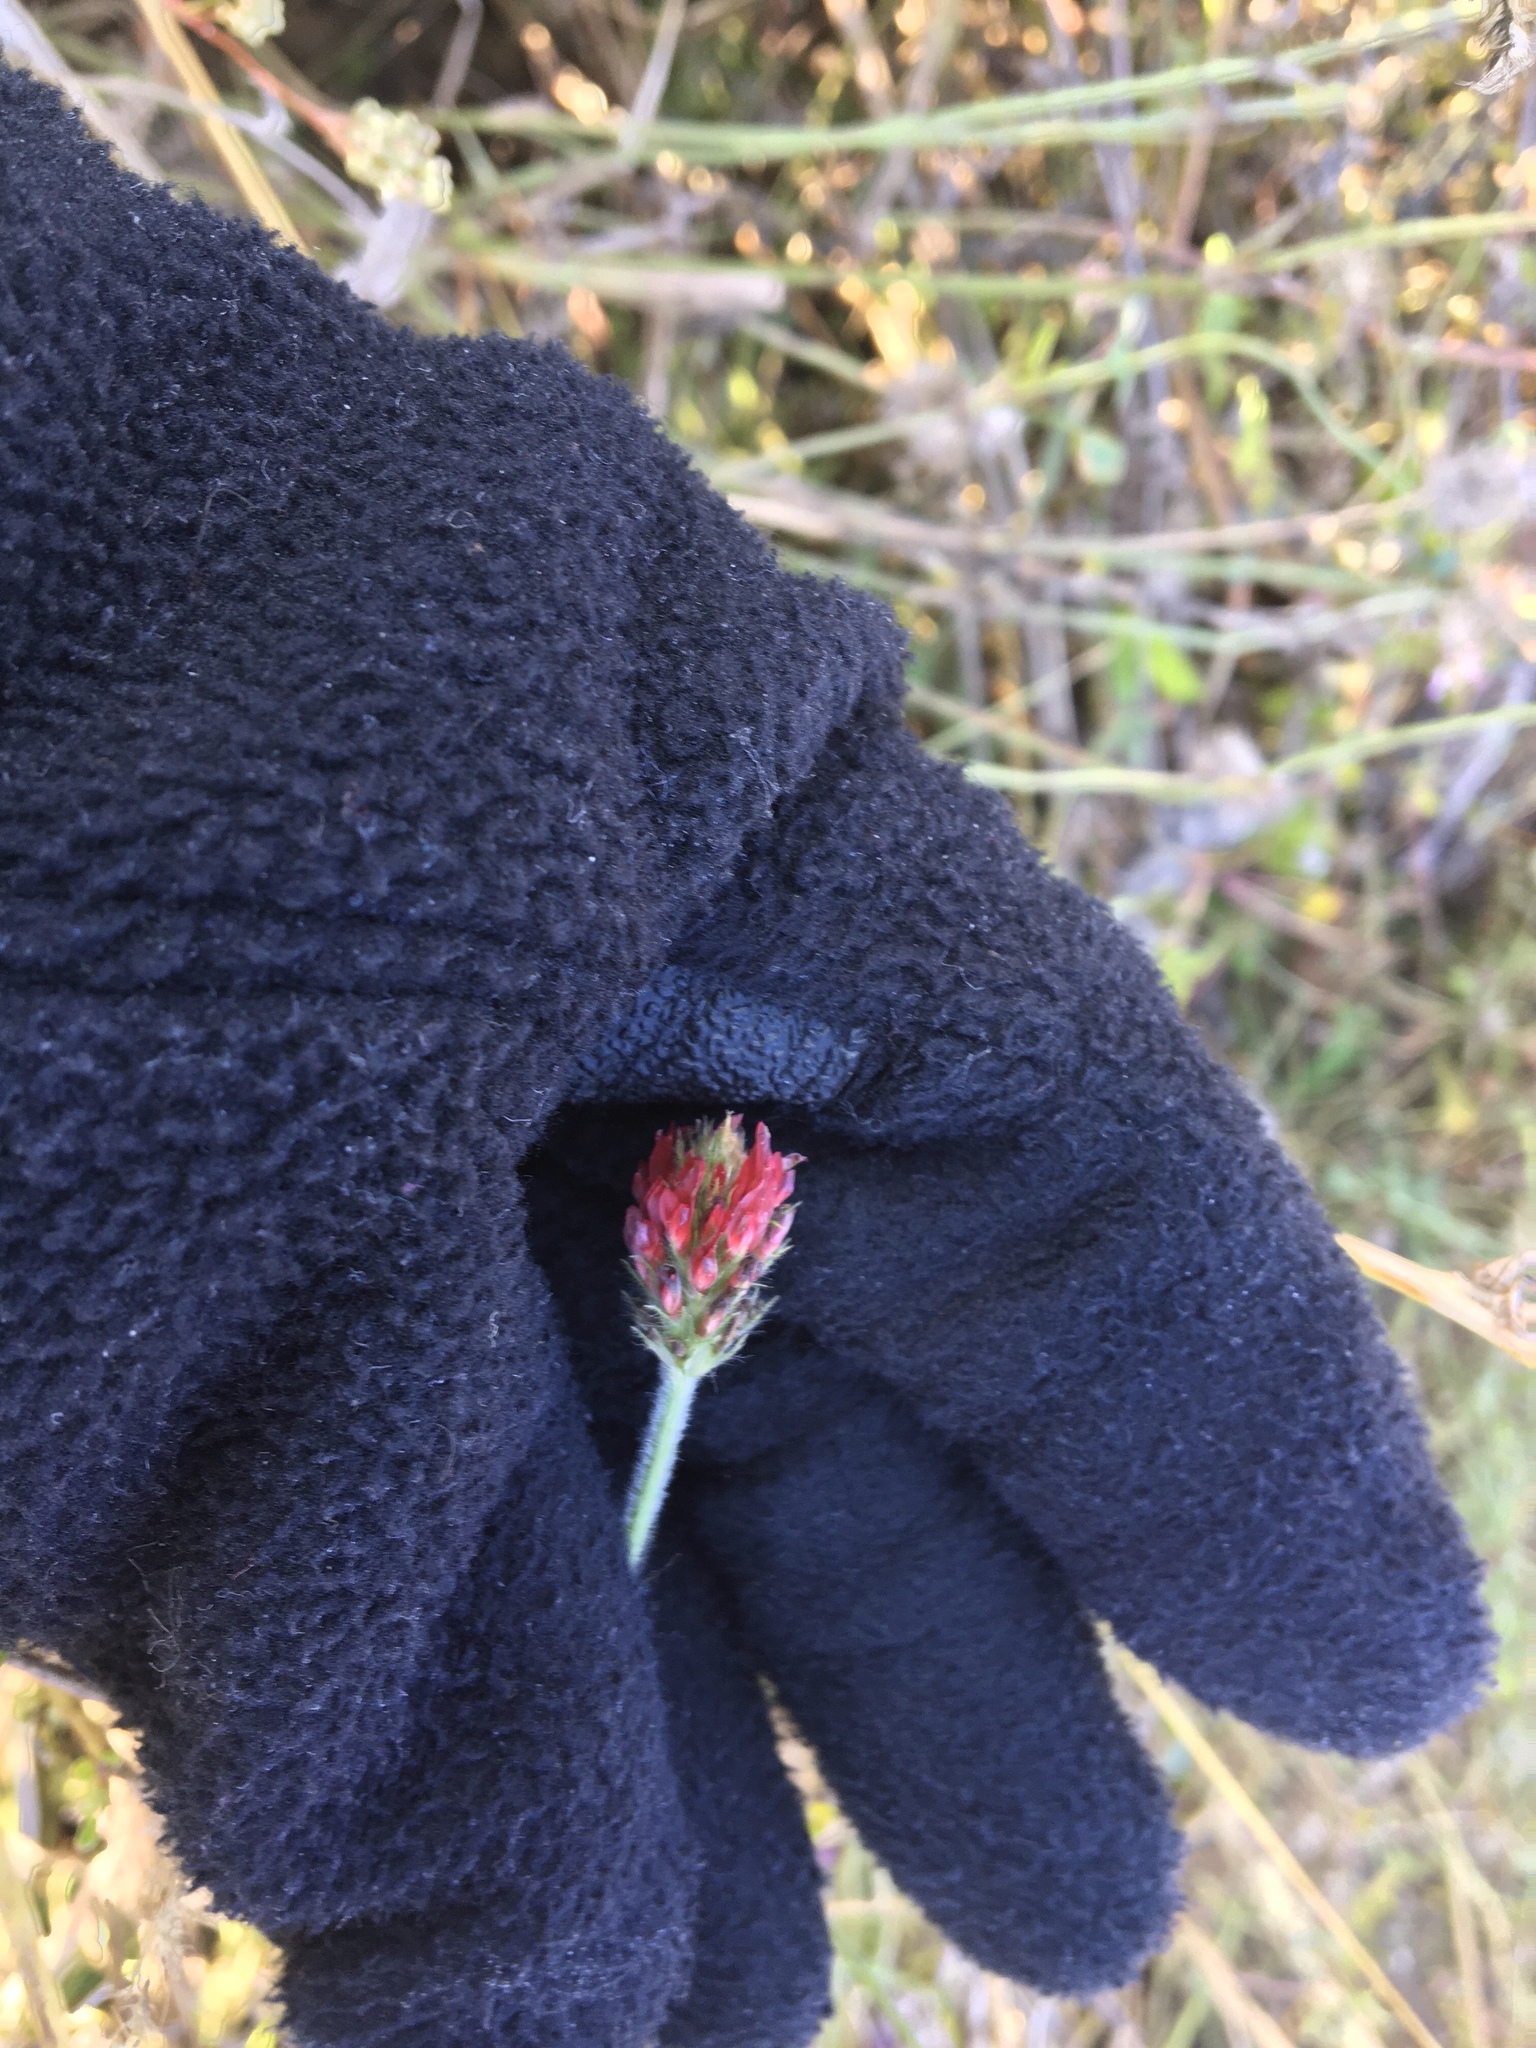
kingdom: Plantae
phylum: Tracheophyta
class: Magnoliopsida
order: Fabales
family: Fabaceae
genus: Trifolium
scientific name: Trifolium incarnatum
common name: Crimson clover
